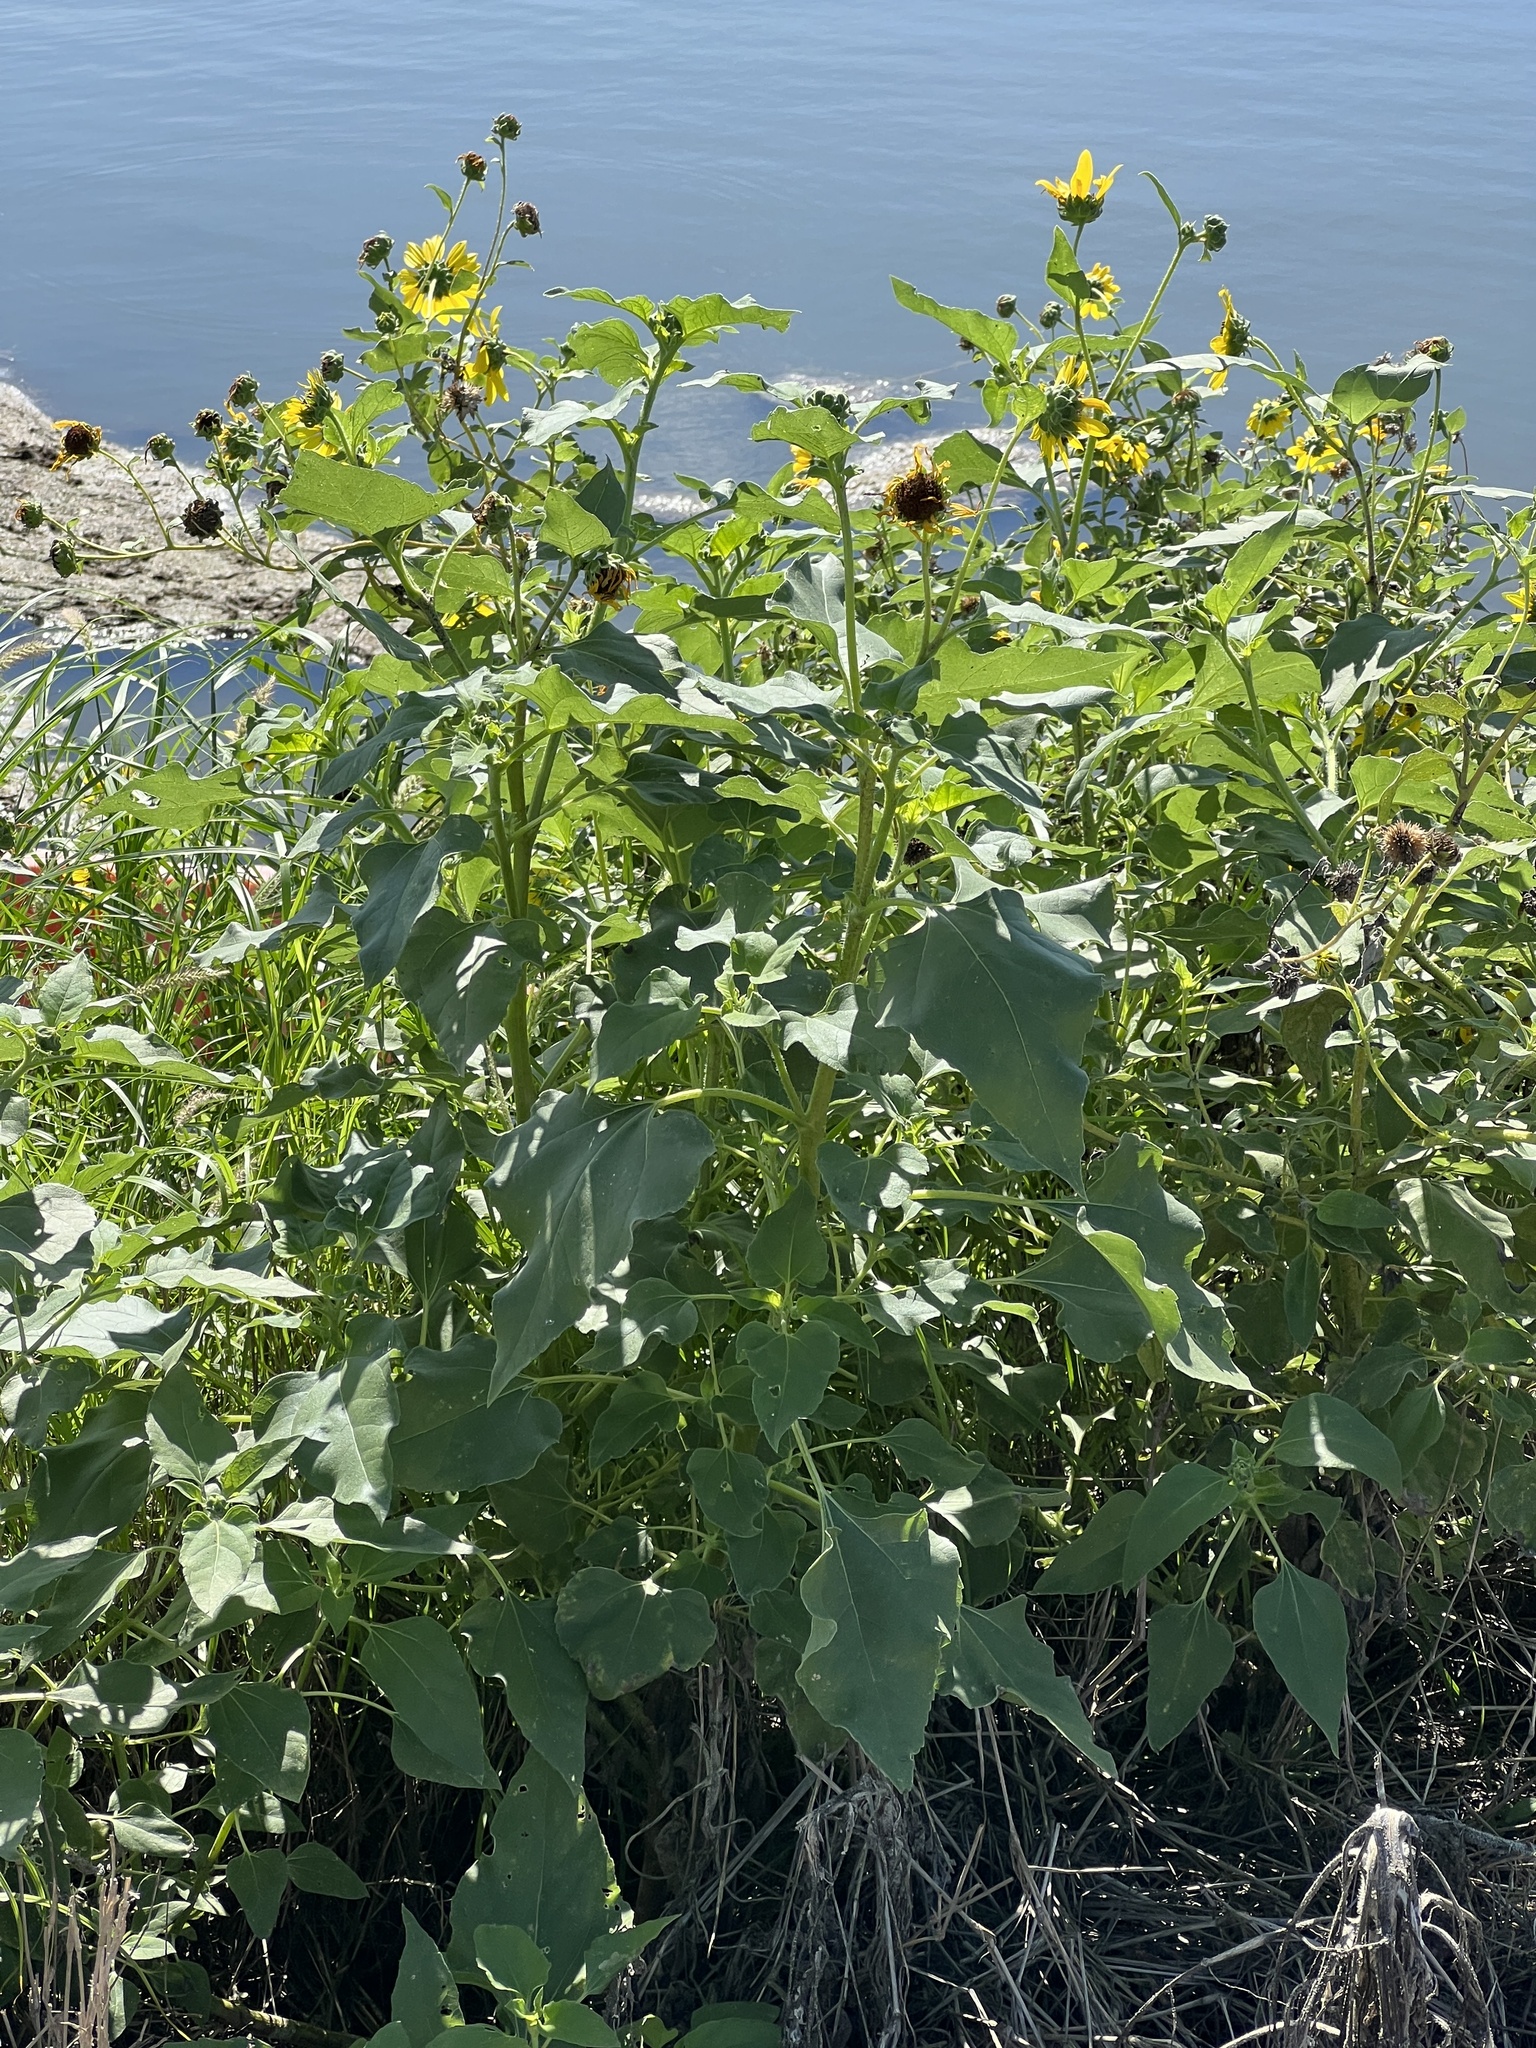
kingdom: Plantae
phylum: Tracheophyta
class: Magnoliopsida
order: Asterales
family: Asteraceae
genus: Helianthus
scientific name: Helianthus annuus
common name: Sunflower
